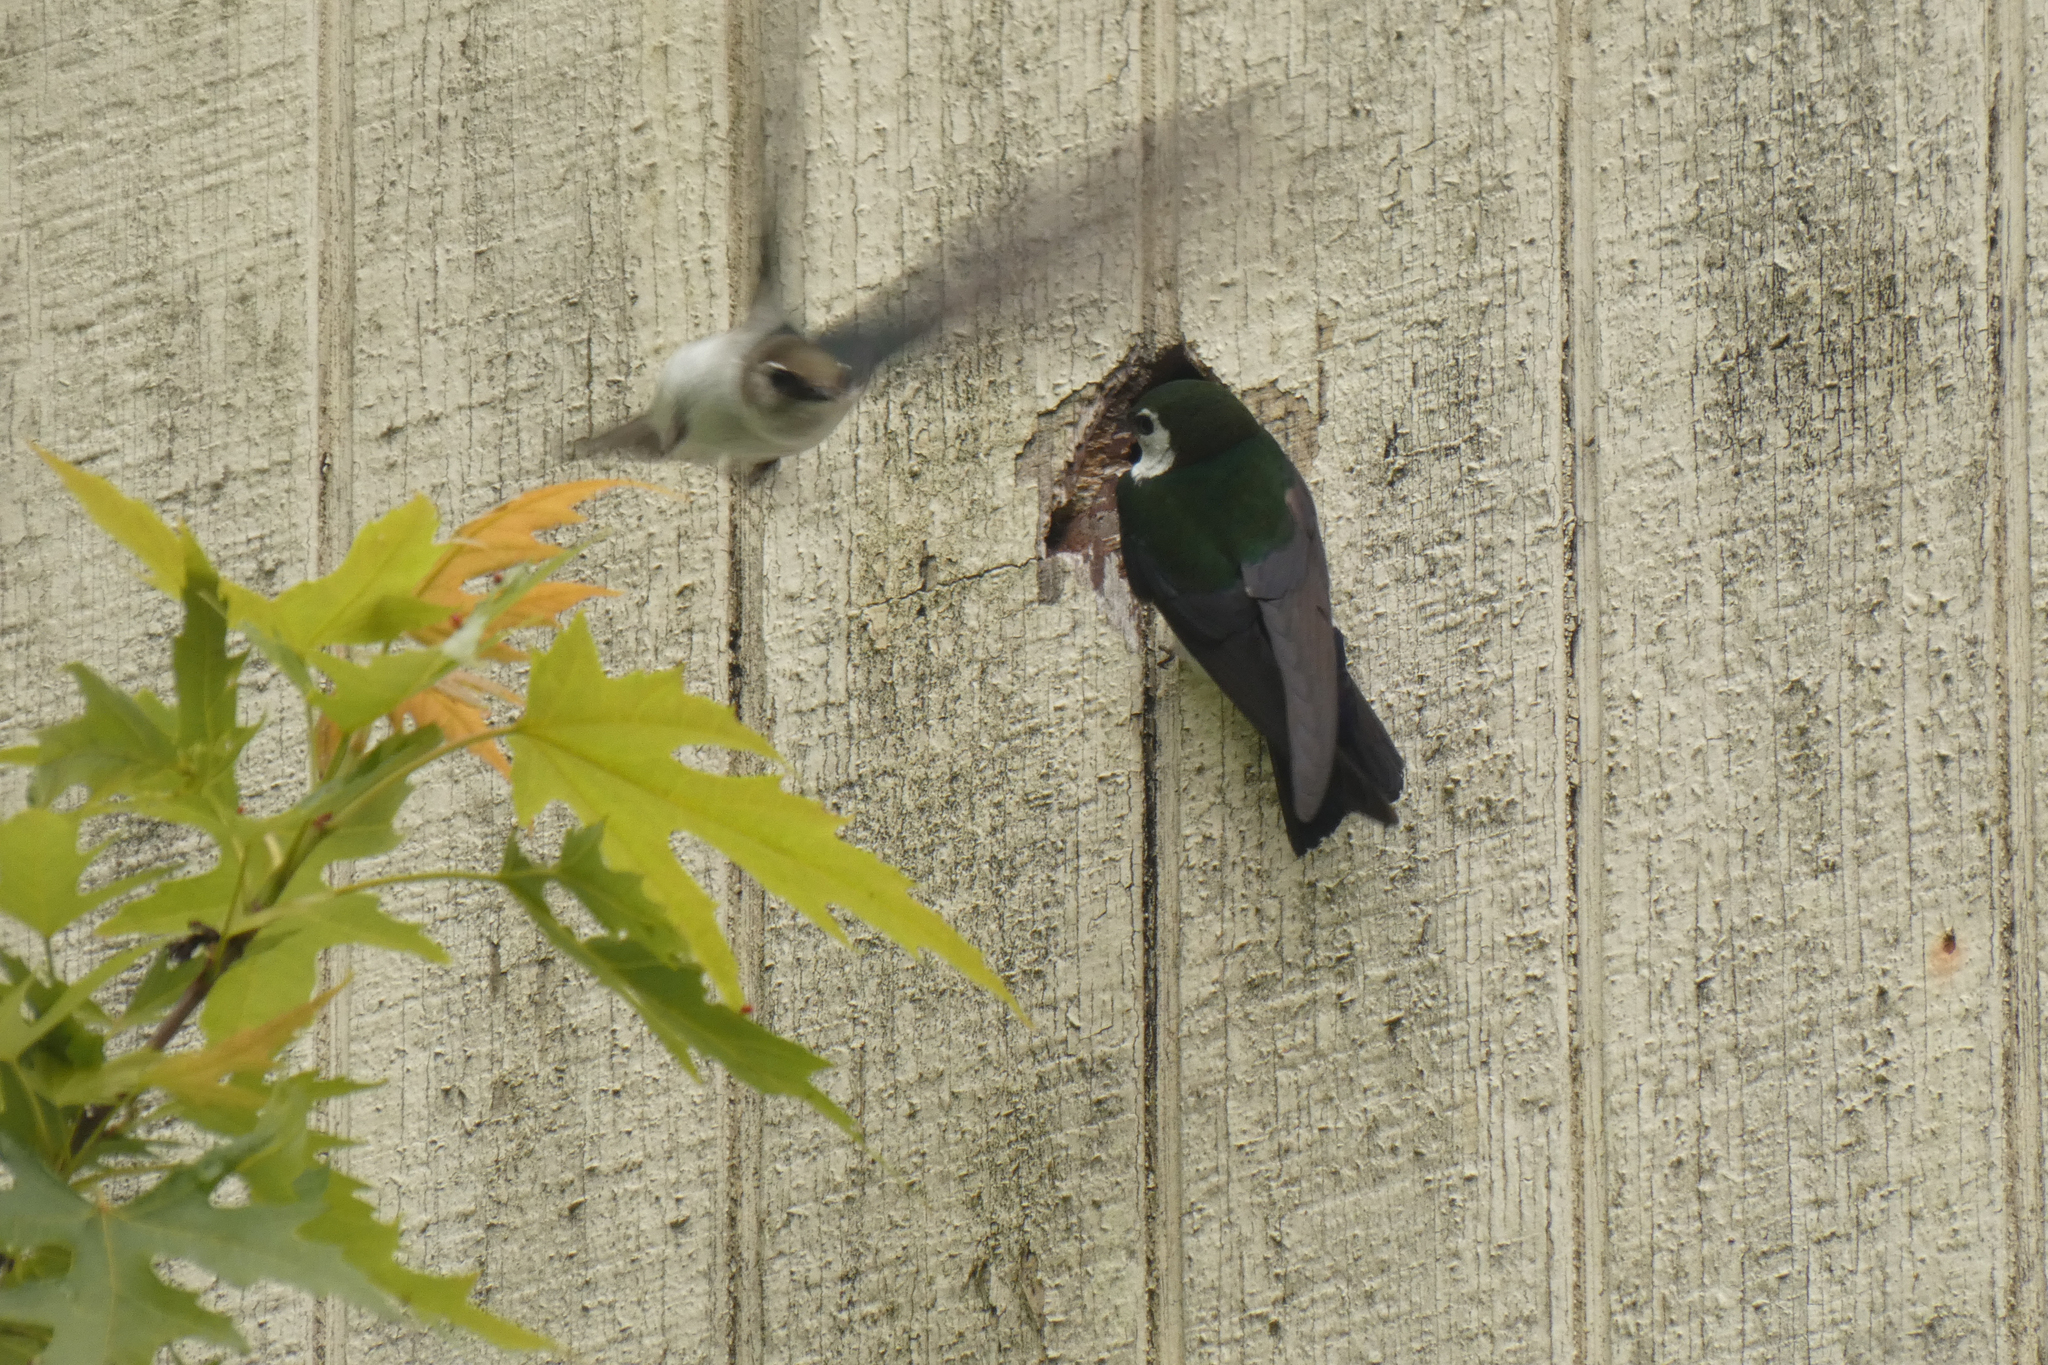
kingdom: Animalia
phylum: Chordata
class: Aves
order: Passeriformes
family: Hirundinidae
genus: Tachycineta
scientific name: Tachycineta thalassina
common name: Violet-green swallow
